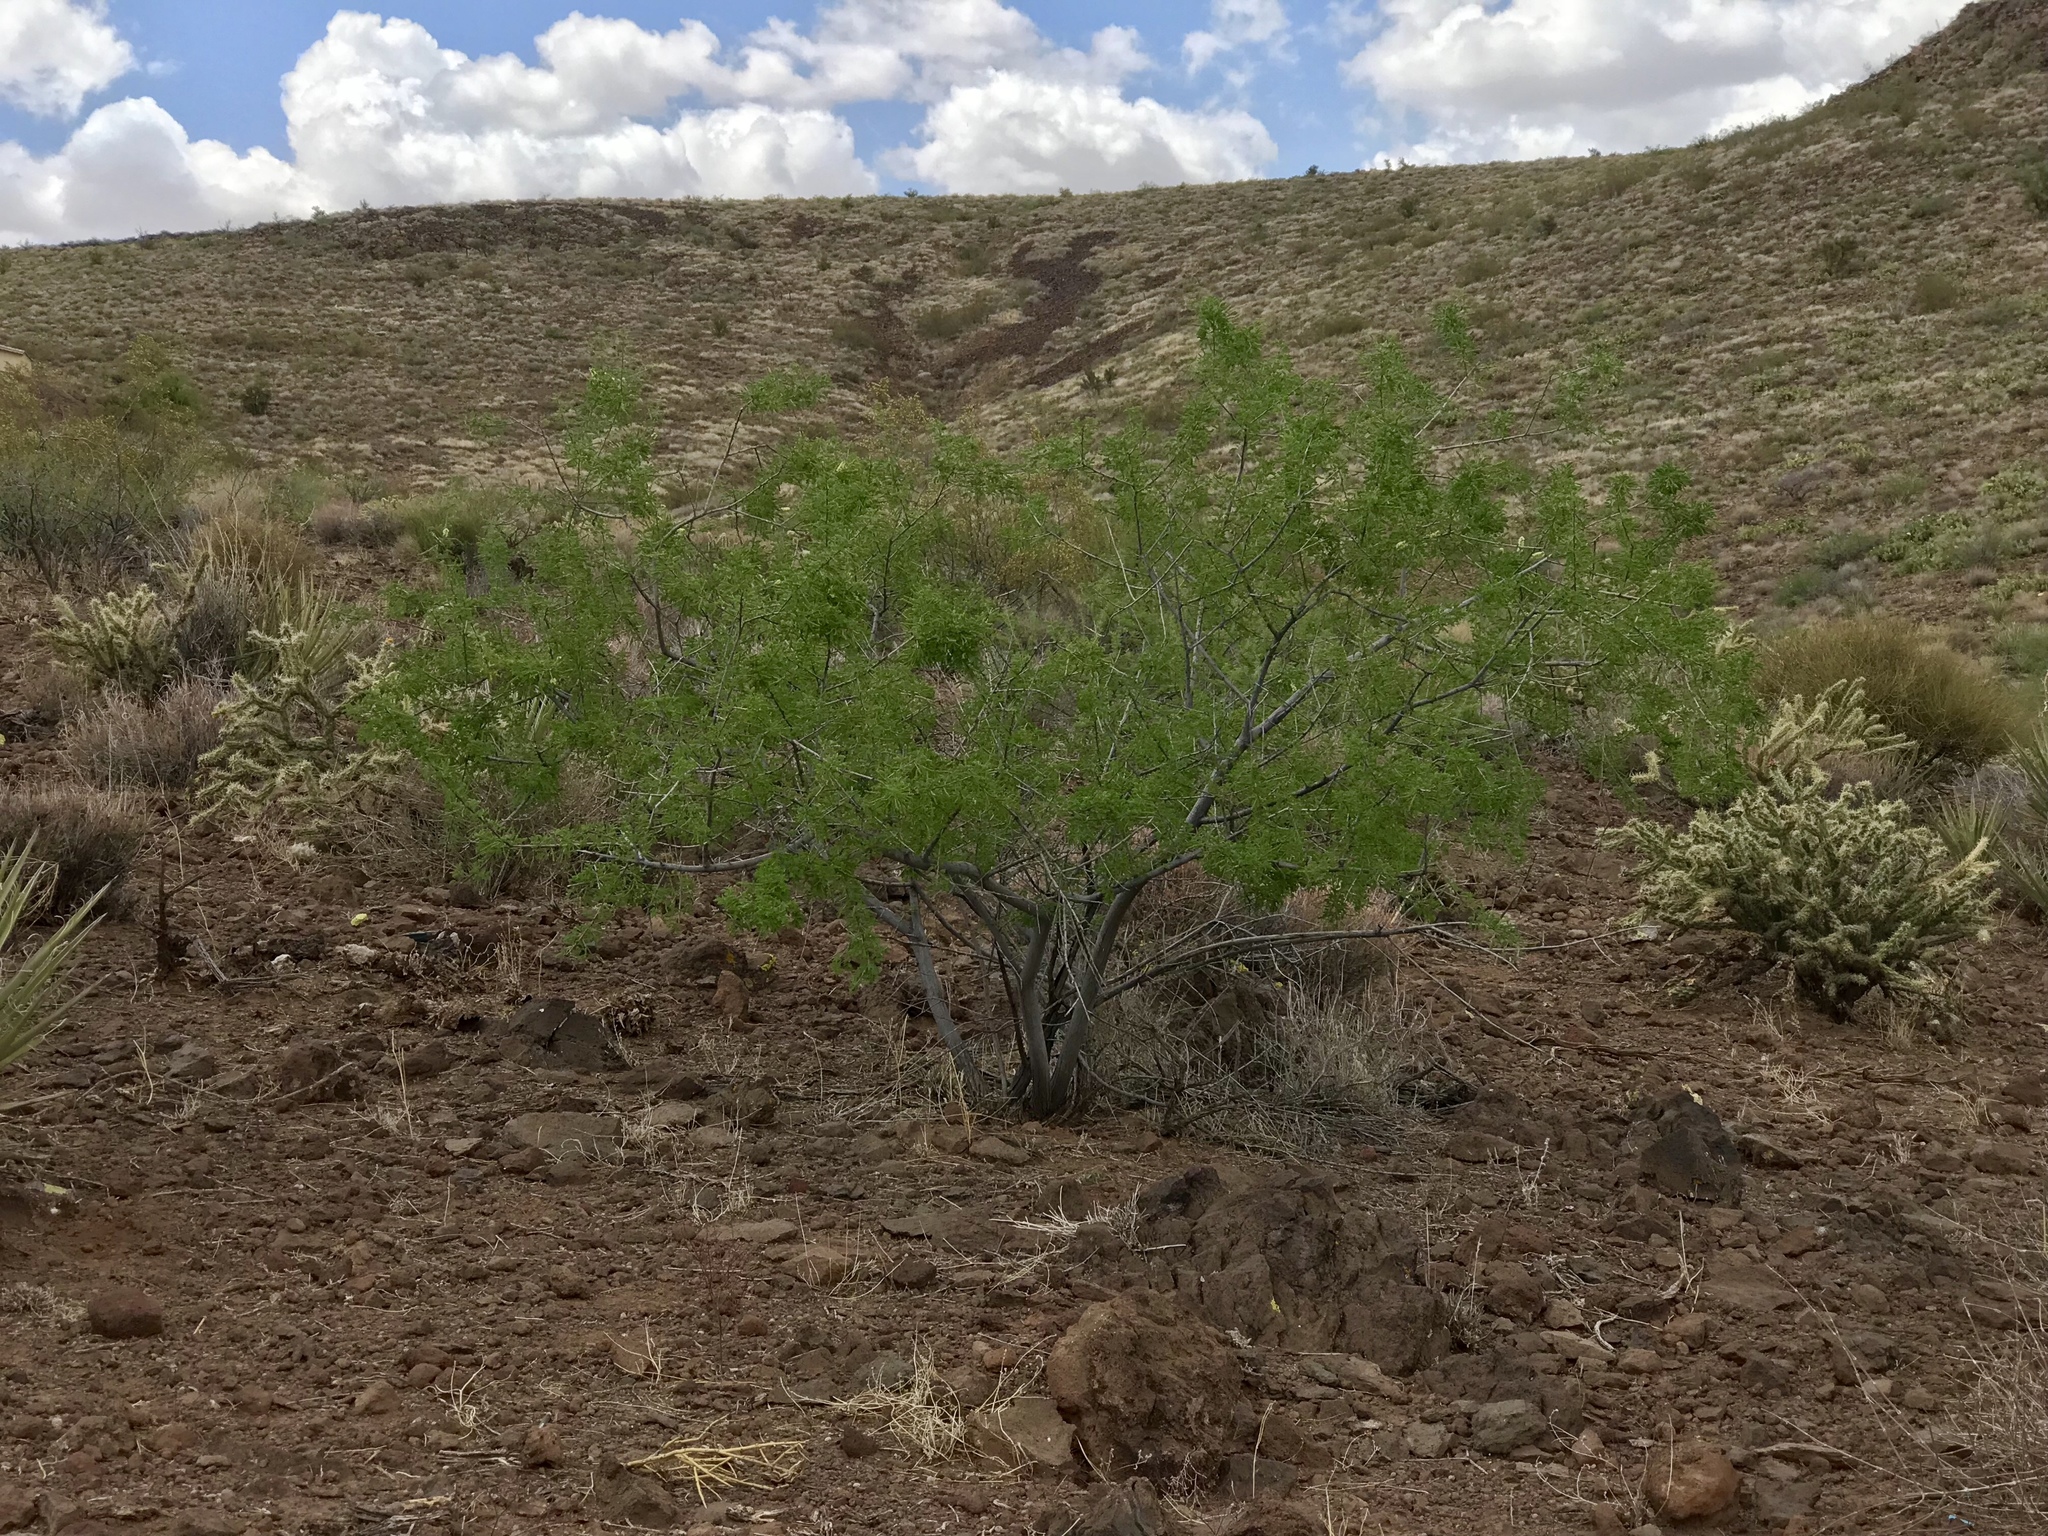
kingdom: Plantae
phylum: Tracheophyta
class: Magnoliopsida
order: Fabales
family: Fabaceae
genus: Senegalia
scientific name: Senegalia greggii
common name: Texas-mimosa
